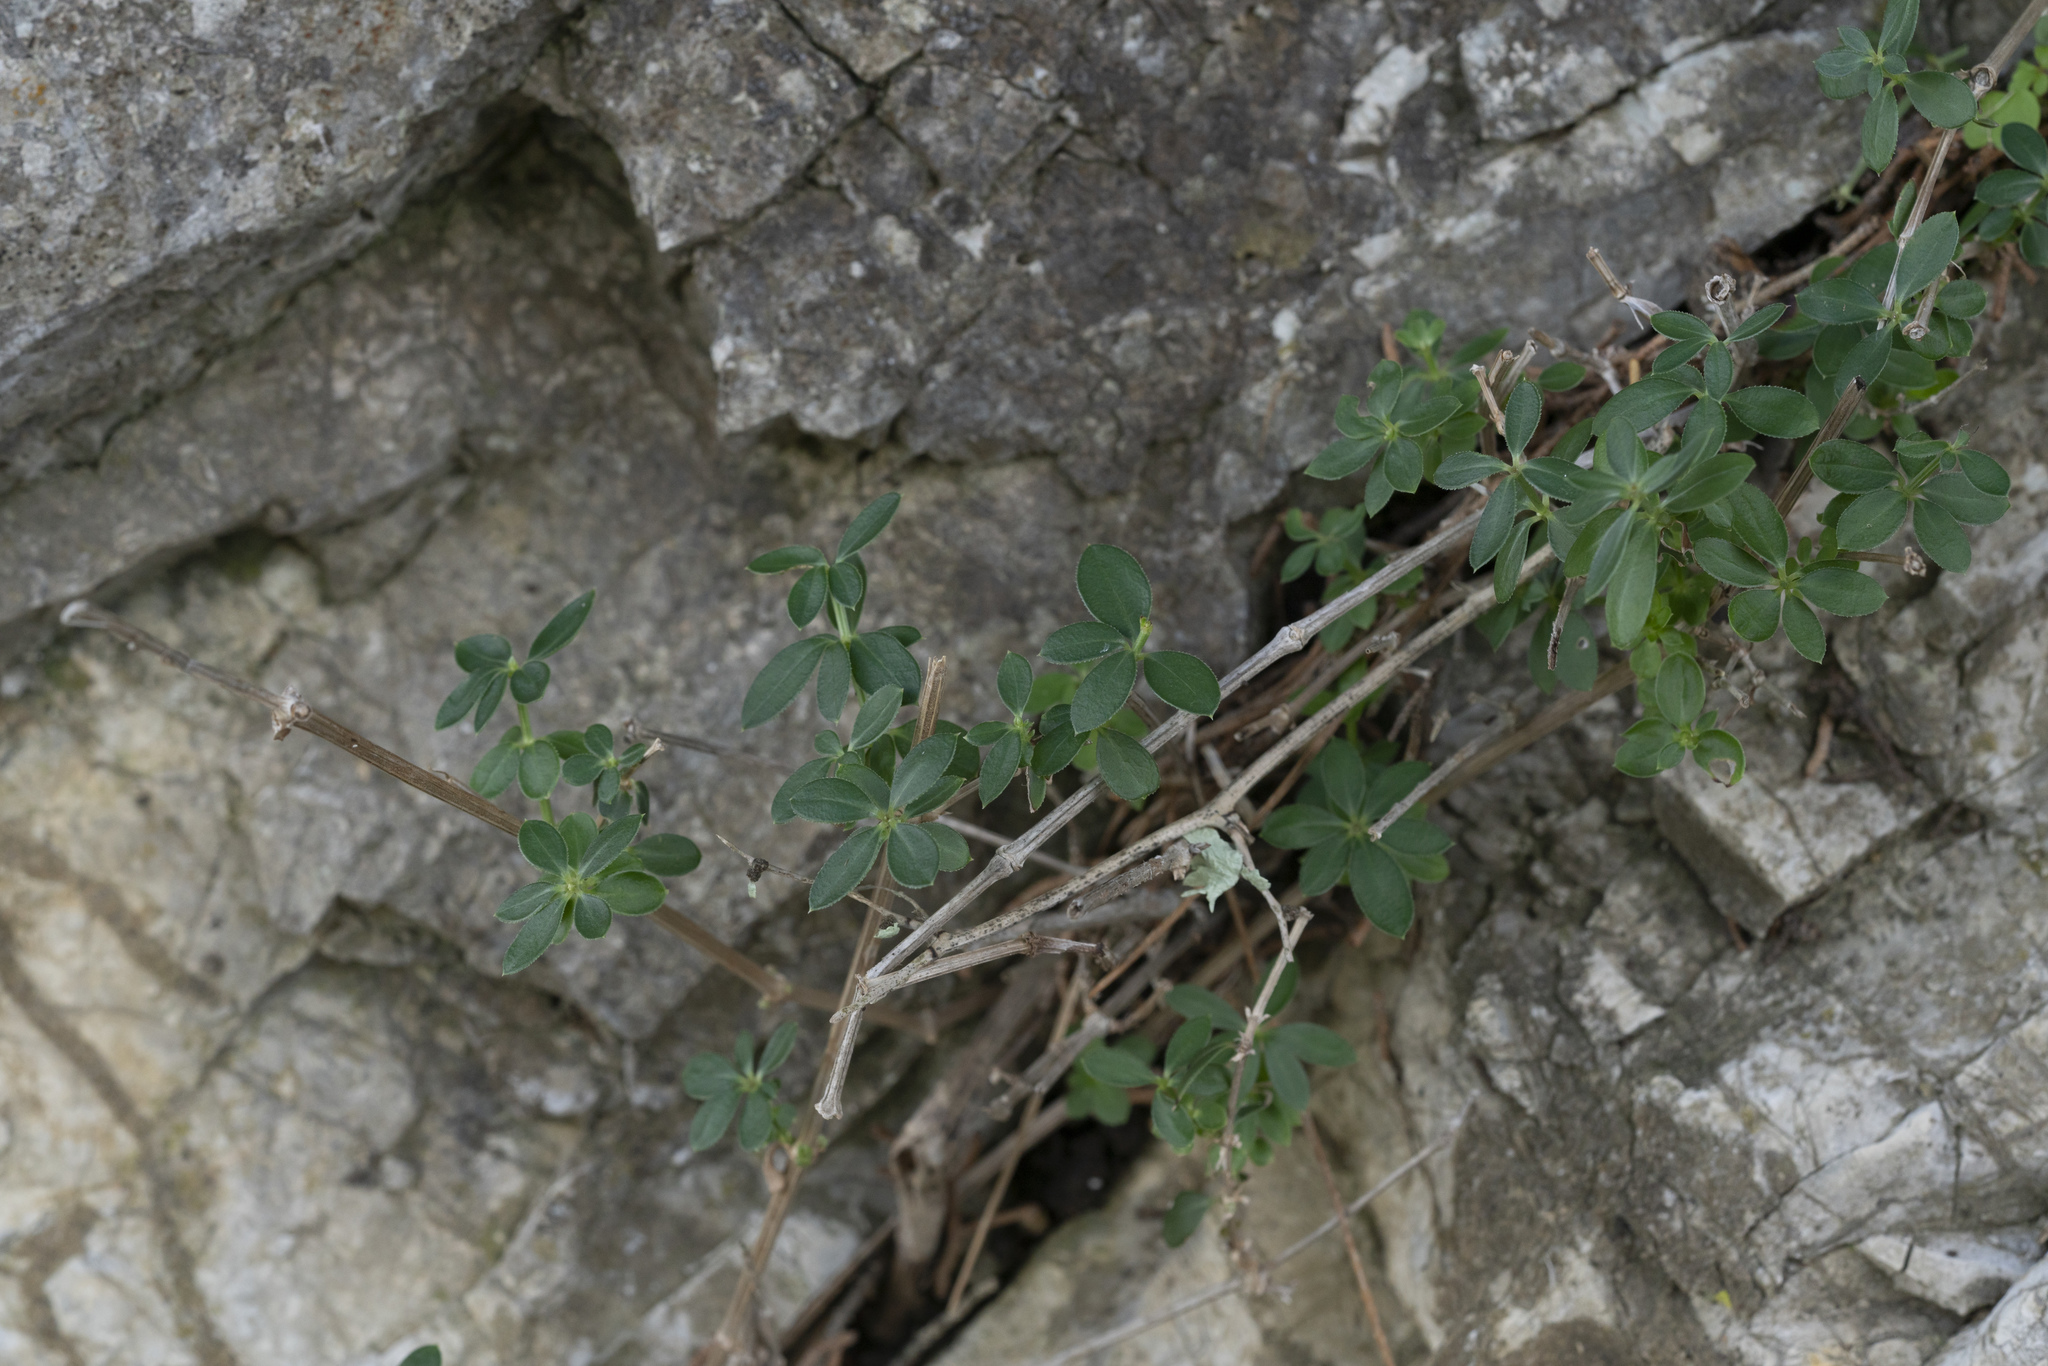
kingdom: Plantae
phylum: Tracheophyta
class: Magnoliopsida
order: Gentianales
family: Rubiaceae
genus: Rubia
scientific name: Rubia tenuifolia
